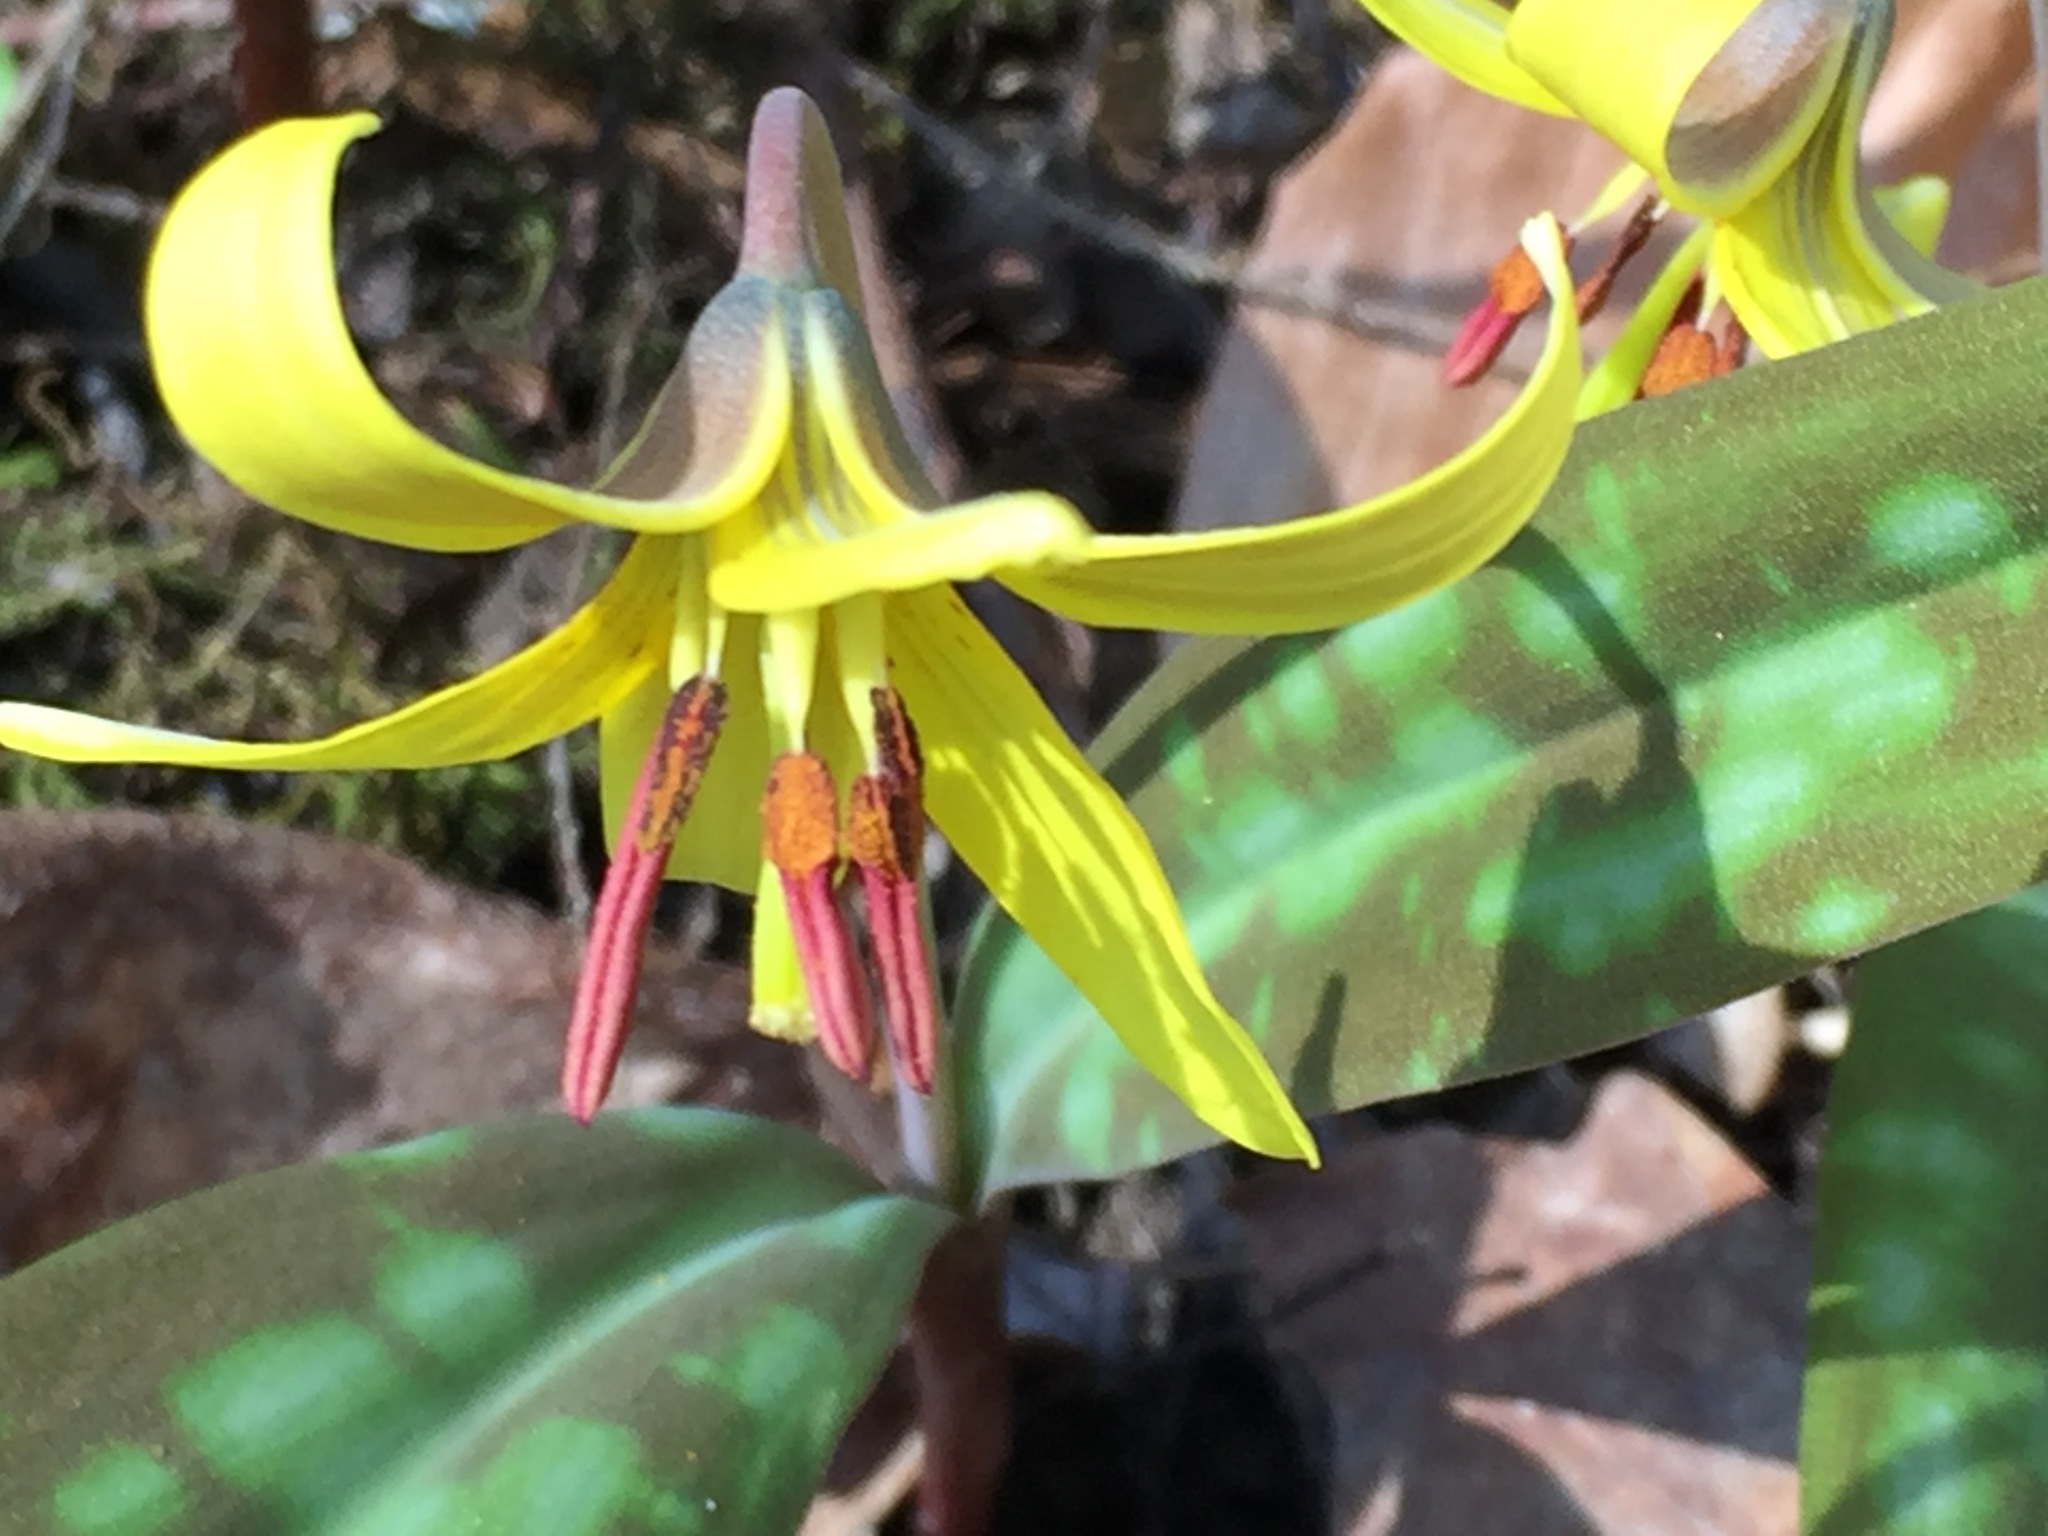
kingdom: Plantae
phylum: Tracheophyta
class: Liliopsida
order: Liliales
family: Liliaceae
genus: Erythronium
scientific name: Erythronium americanum
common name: Yellow adder's-tongue
